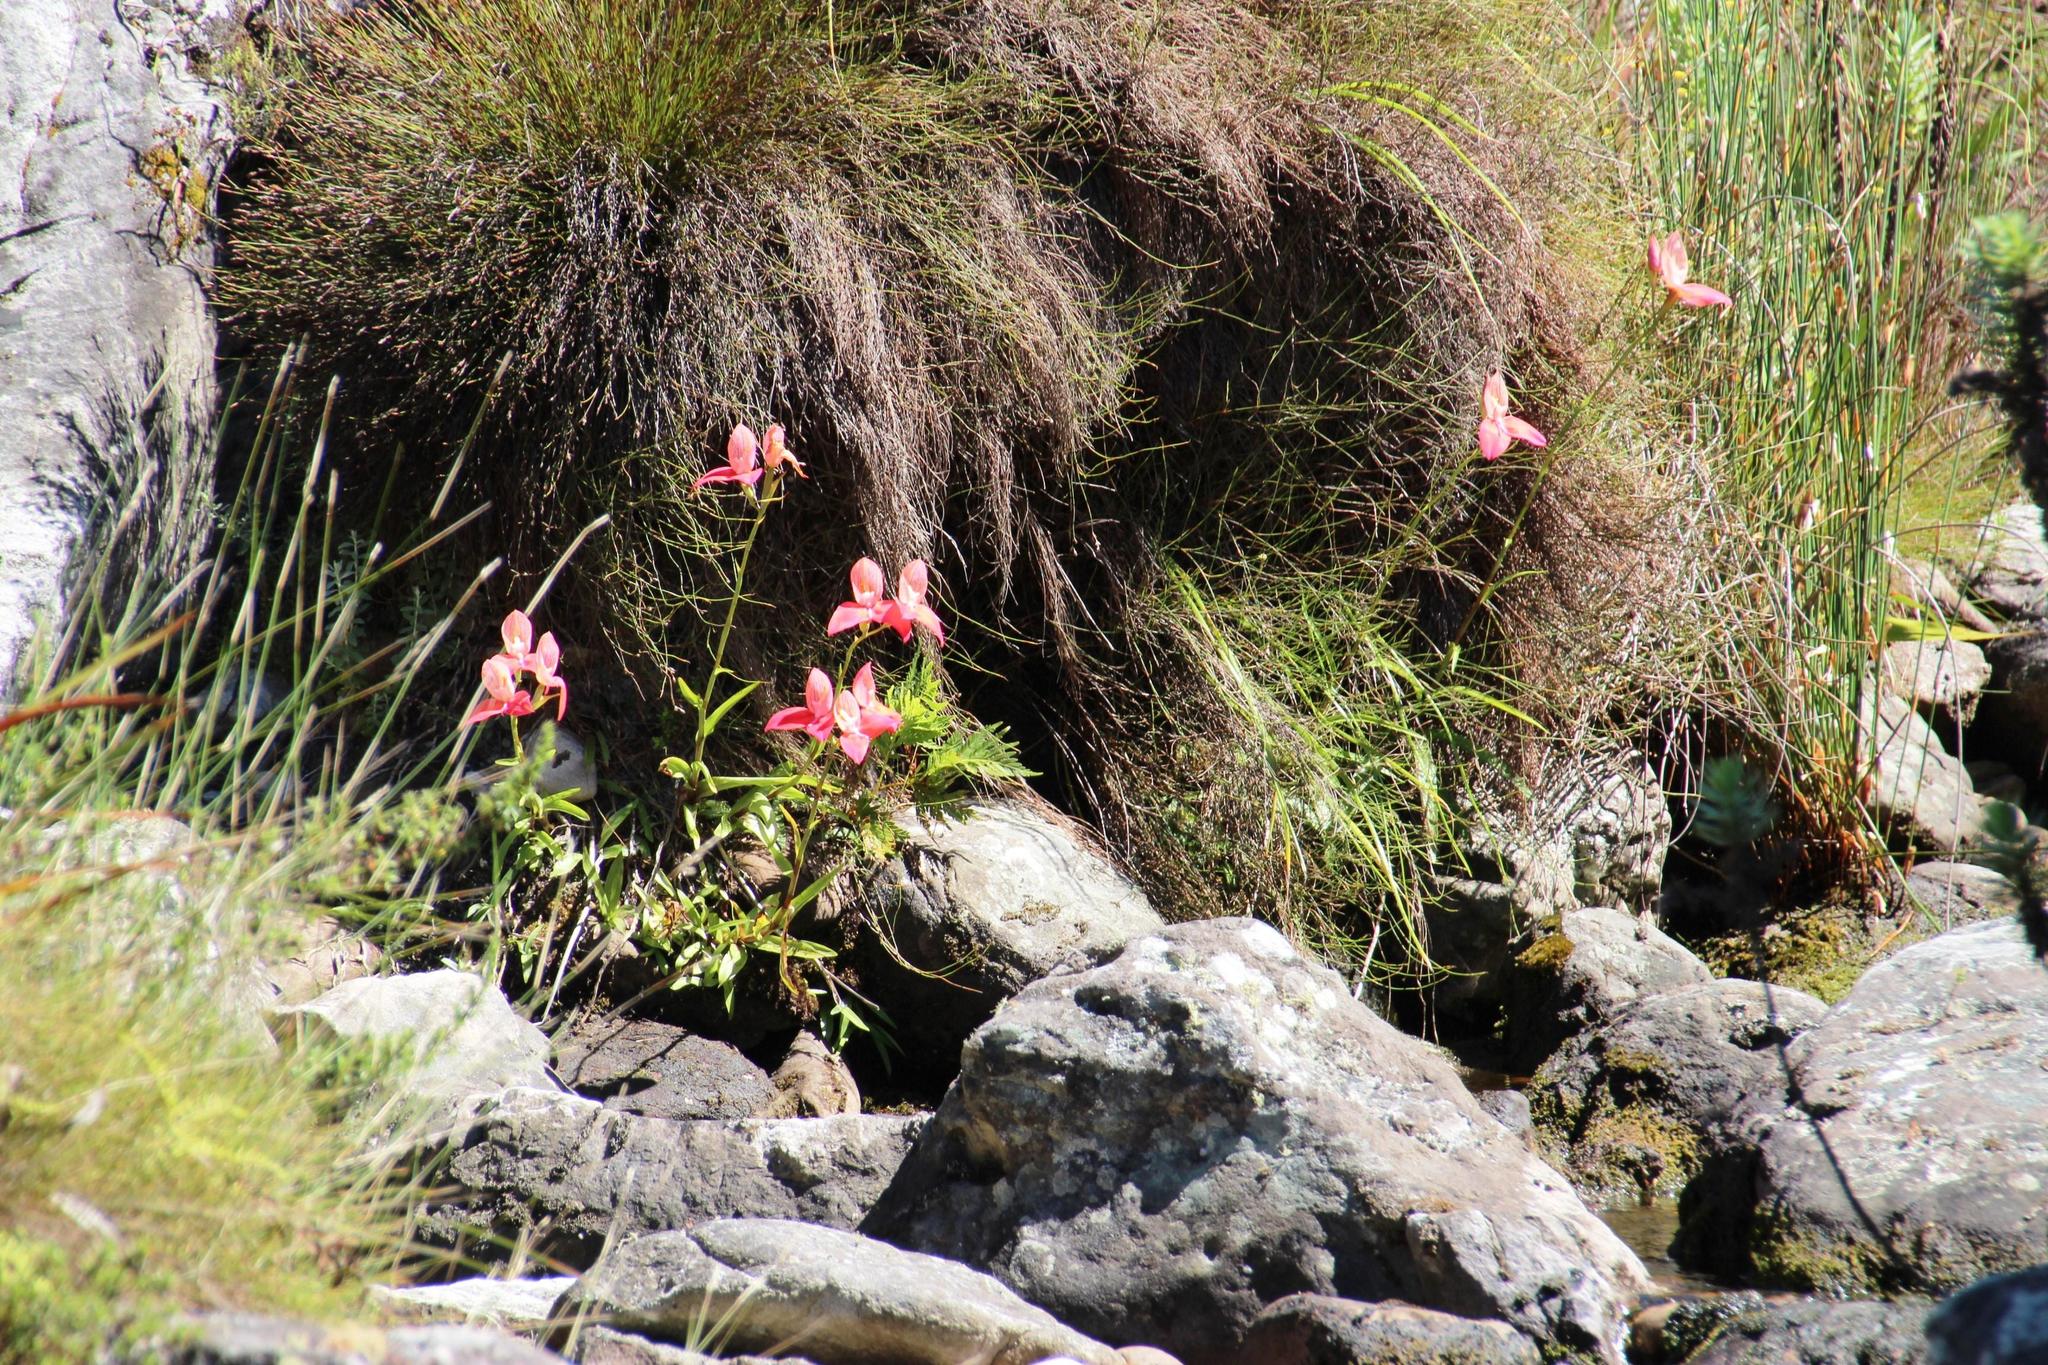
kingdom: Plantae
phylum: Tracheophyta
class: Liliopsida
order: Asparagales
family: Orchidaceae
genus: Disa
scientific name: Disa uniflora
